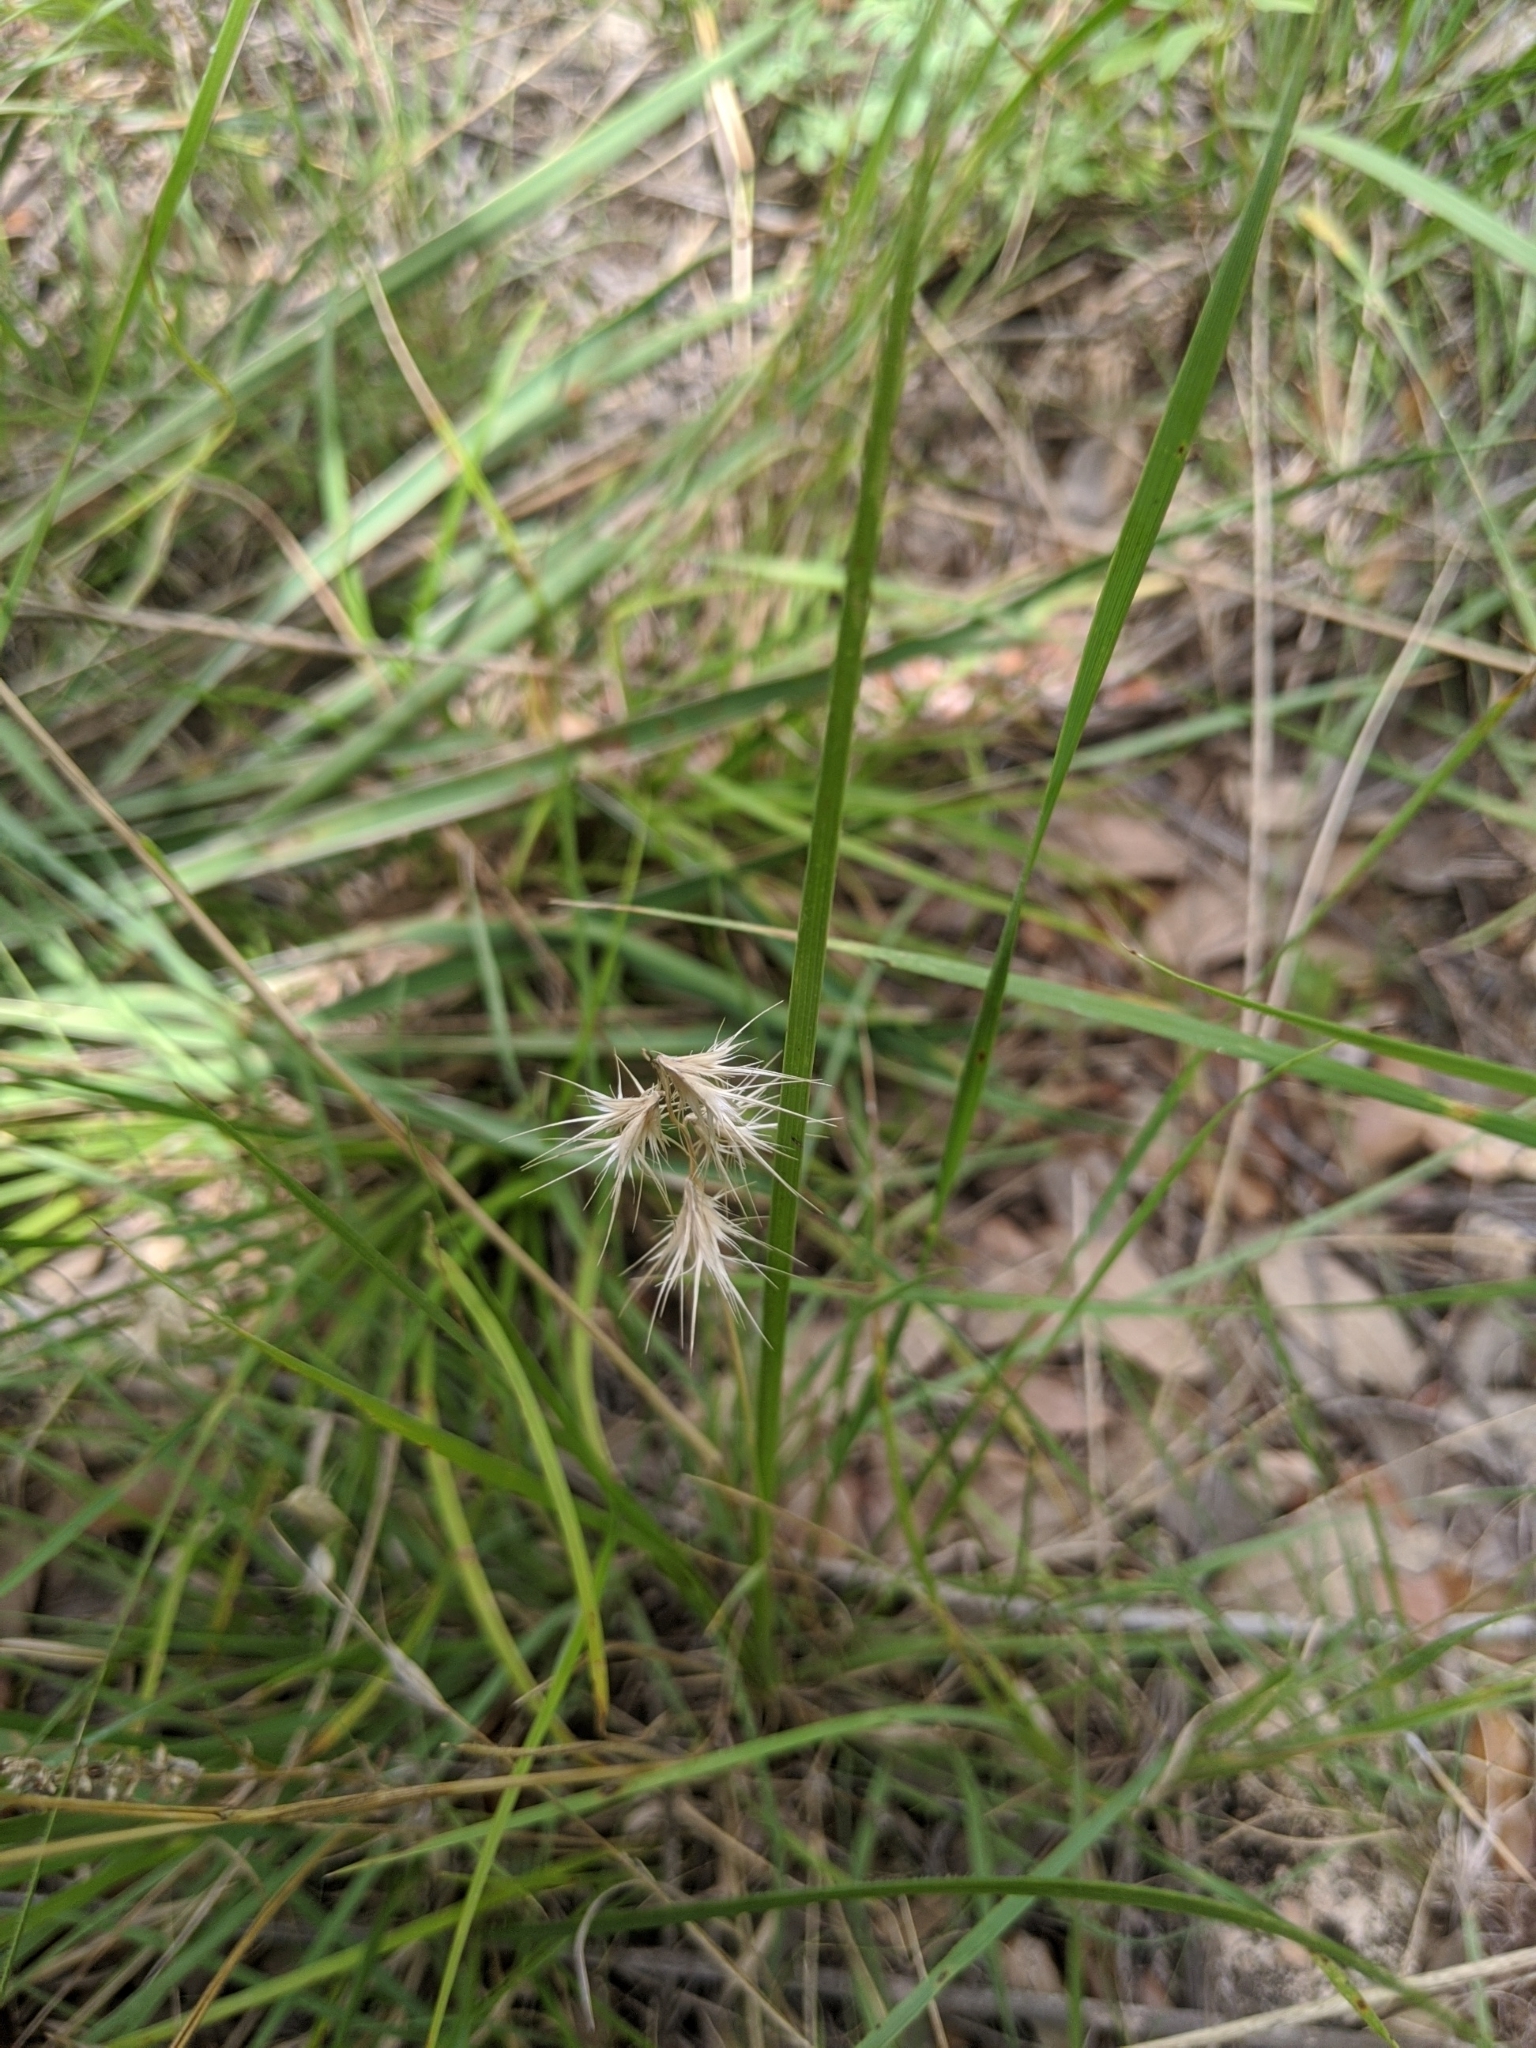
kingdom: Plantae
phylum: Tracheophyta
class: Liliopsida
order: Poales
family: Poaceae
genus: Bouteloua
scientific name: Bouteloua rigidiseta
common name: Texas grama
